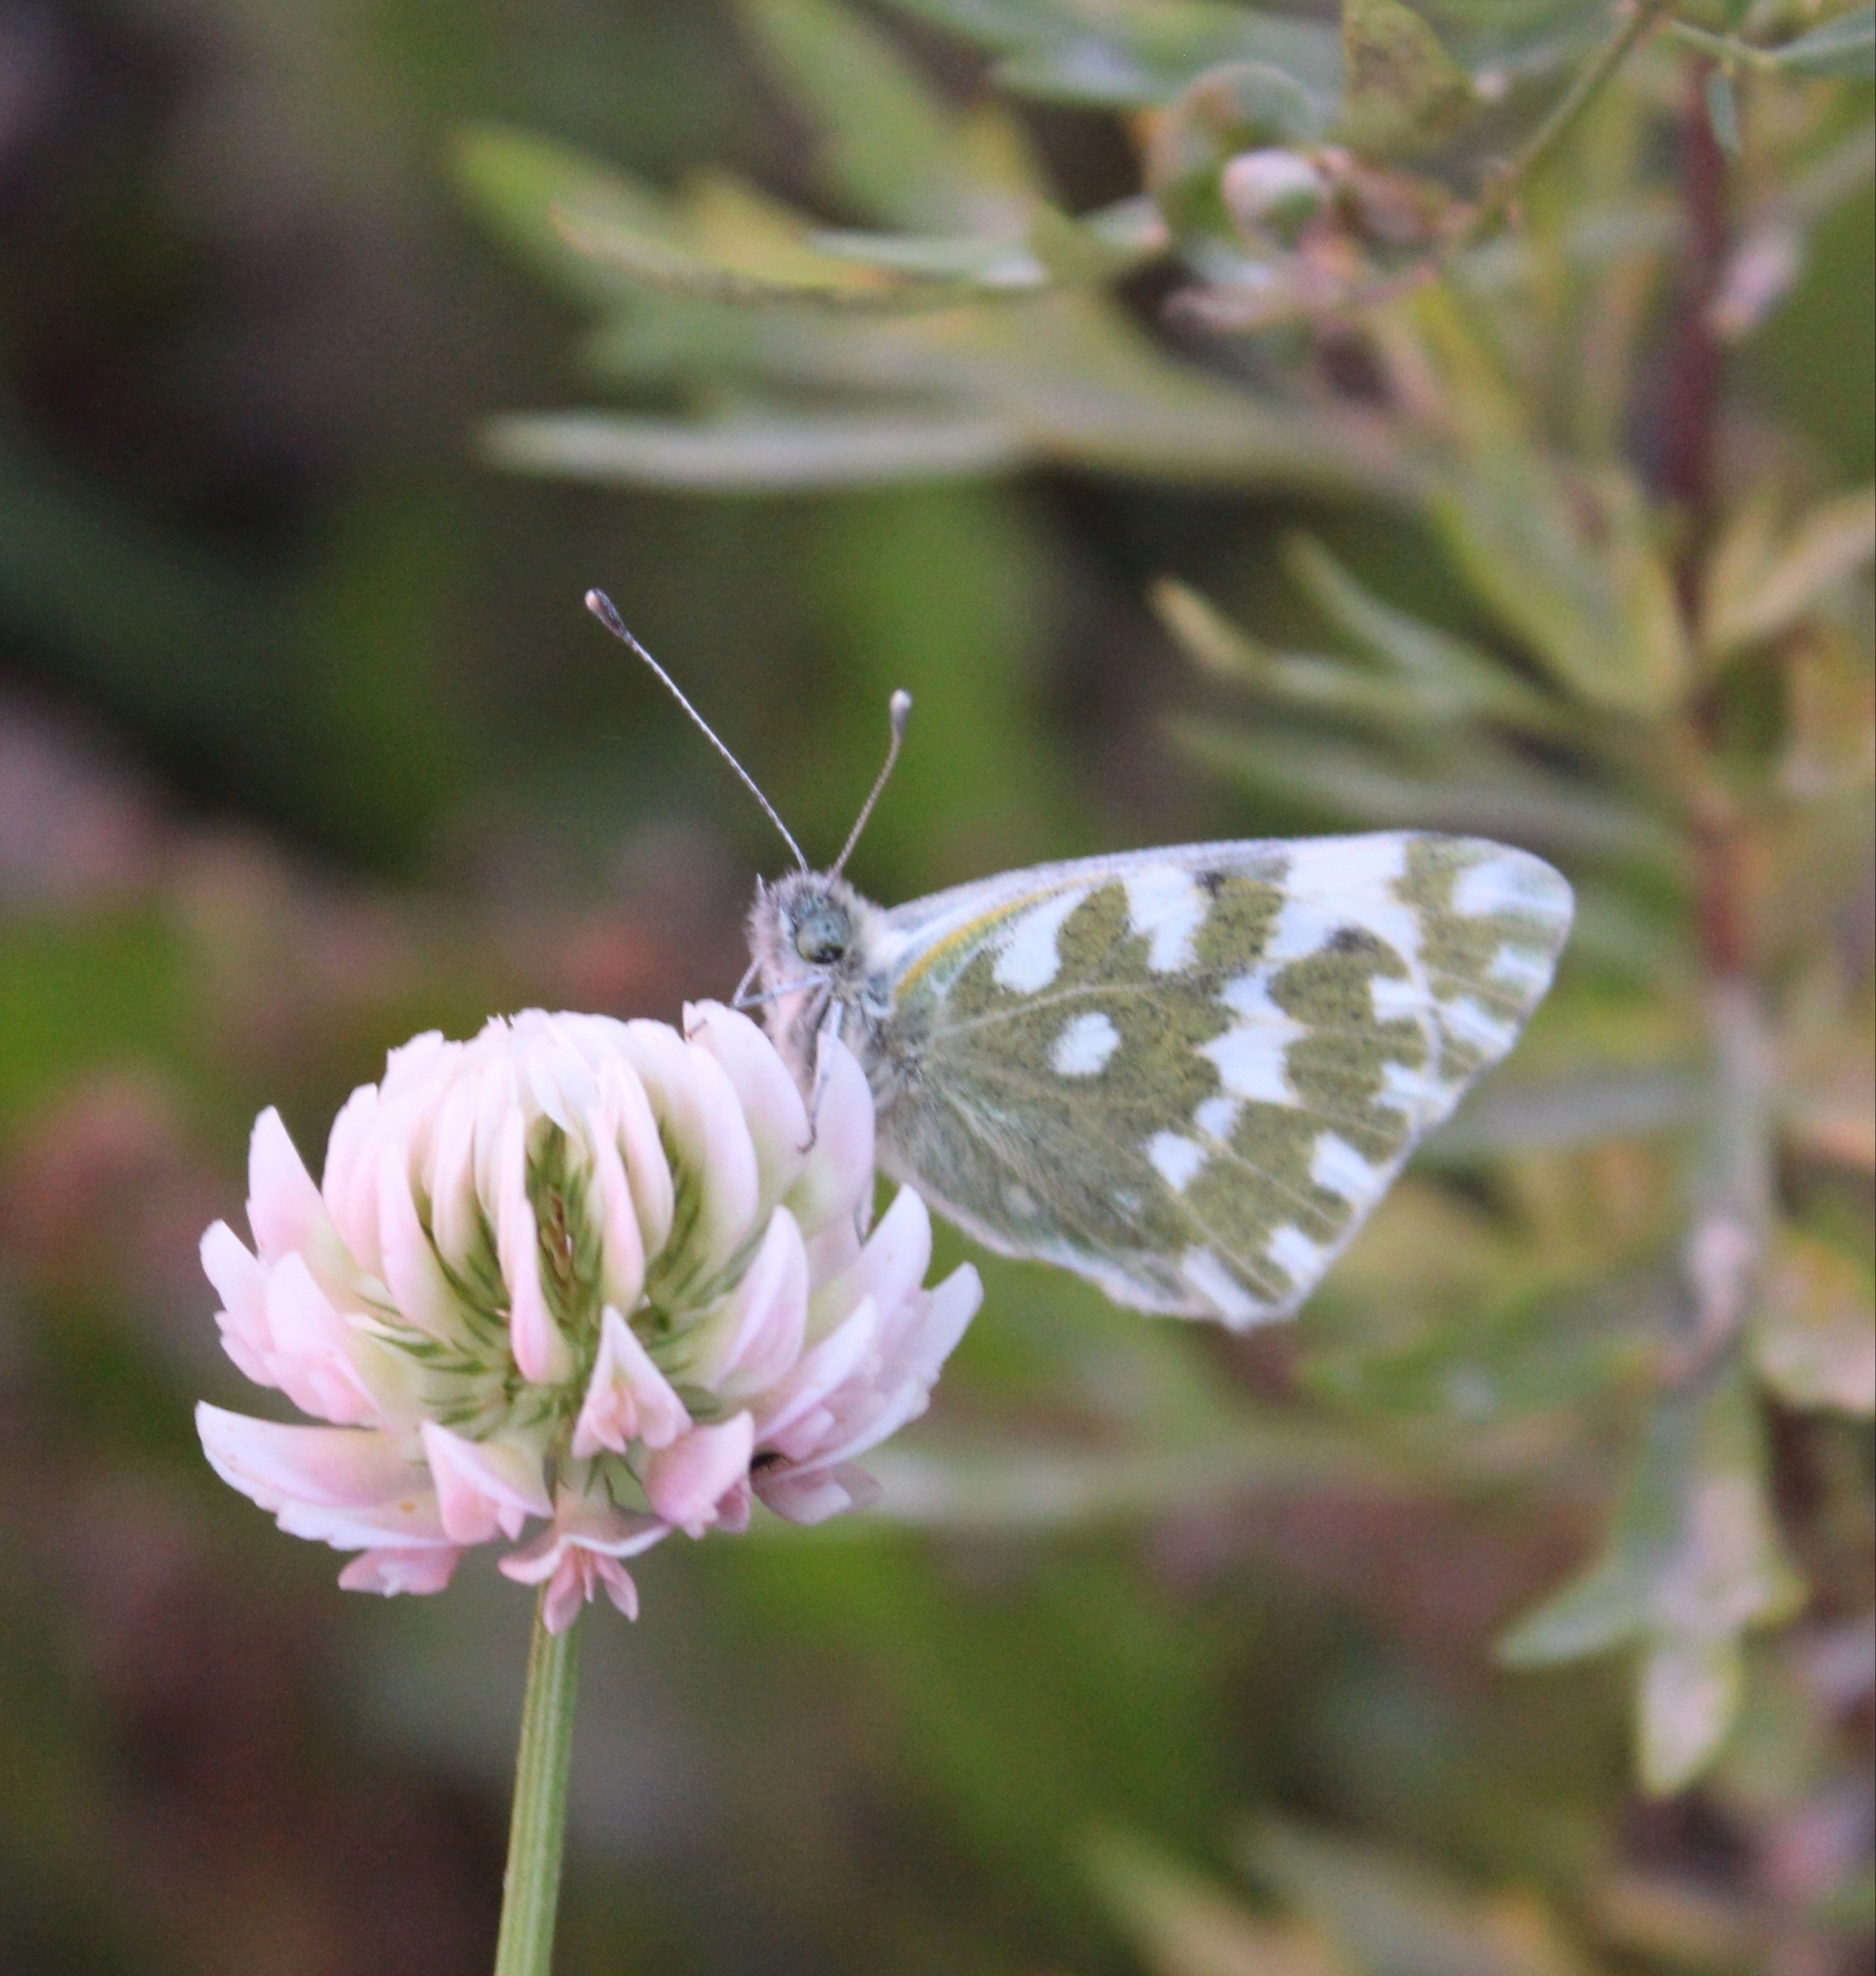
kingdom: Animalia
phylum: Arthropoda
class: Insecta
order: Lepidoptera
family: Pieridae
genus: Pontia
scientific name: Pontia edusa
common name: Eastern bath white
